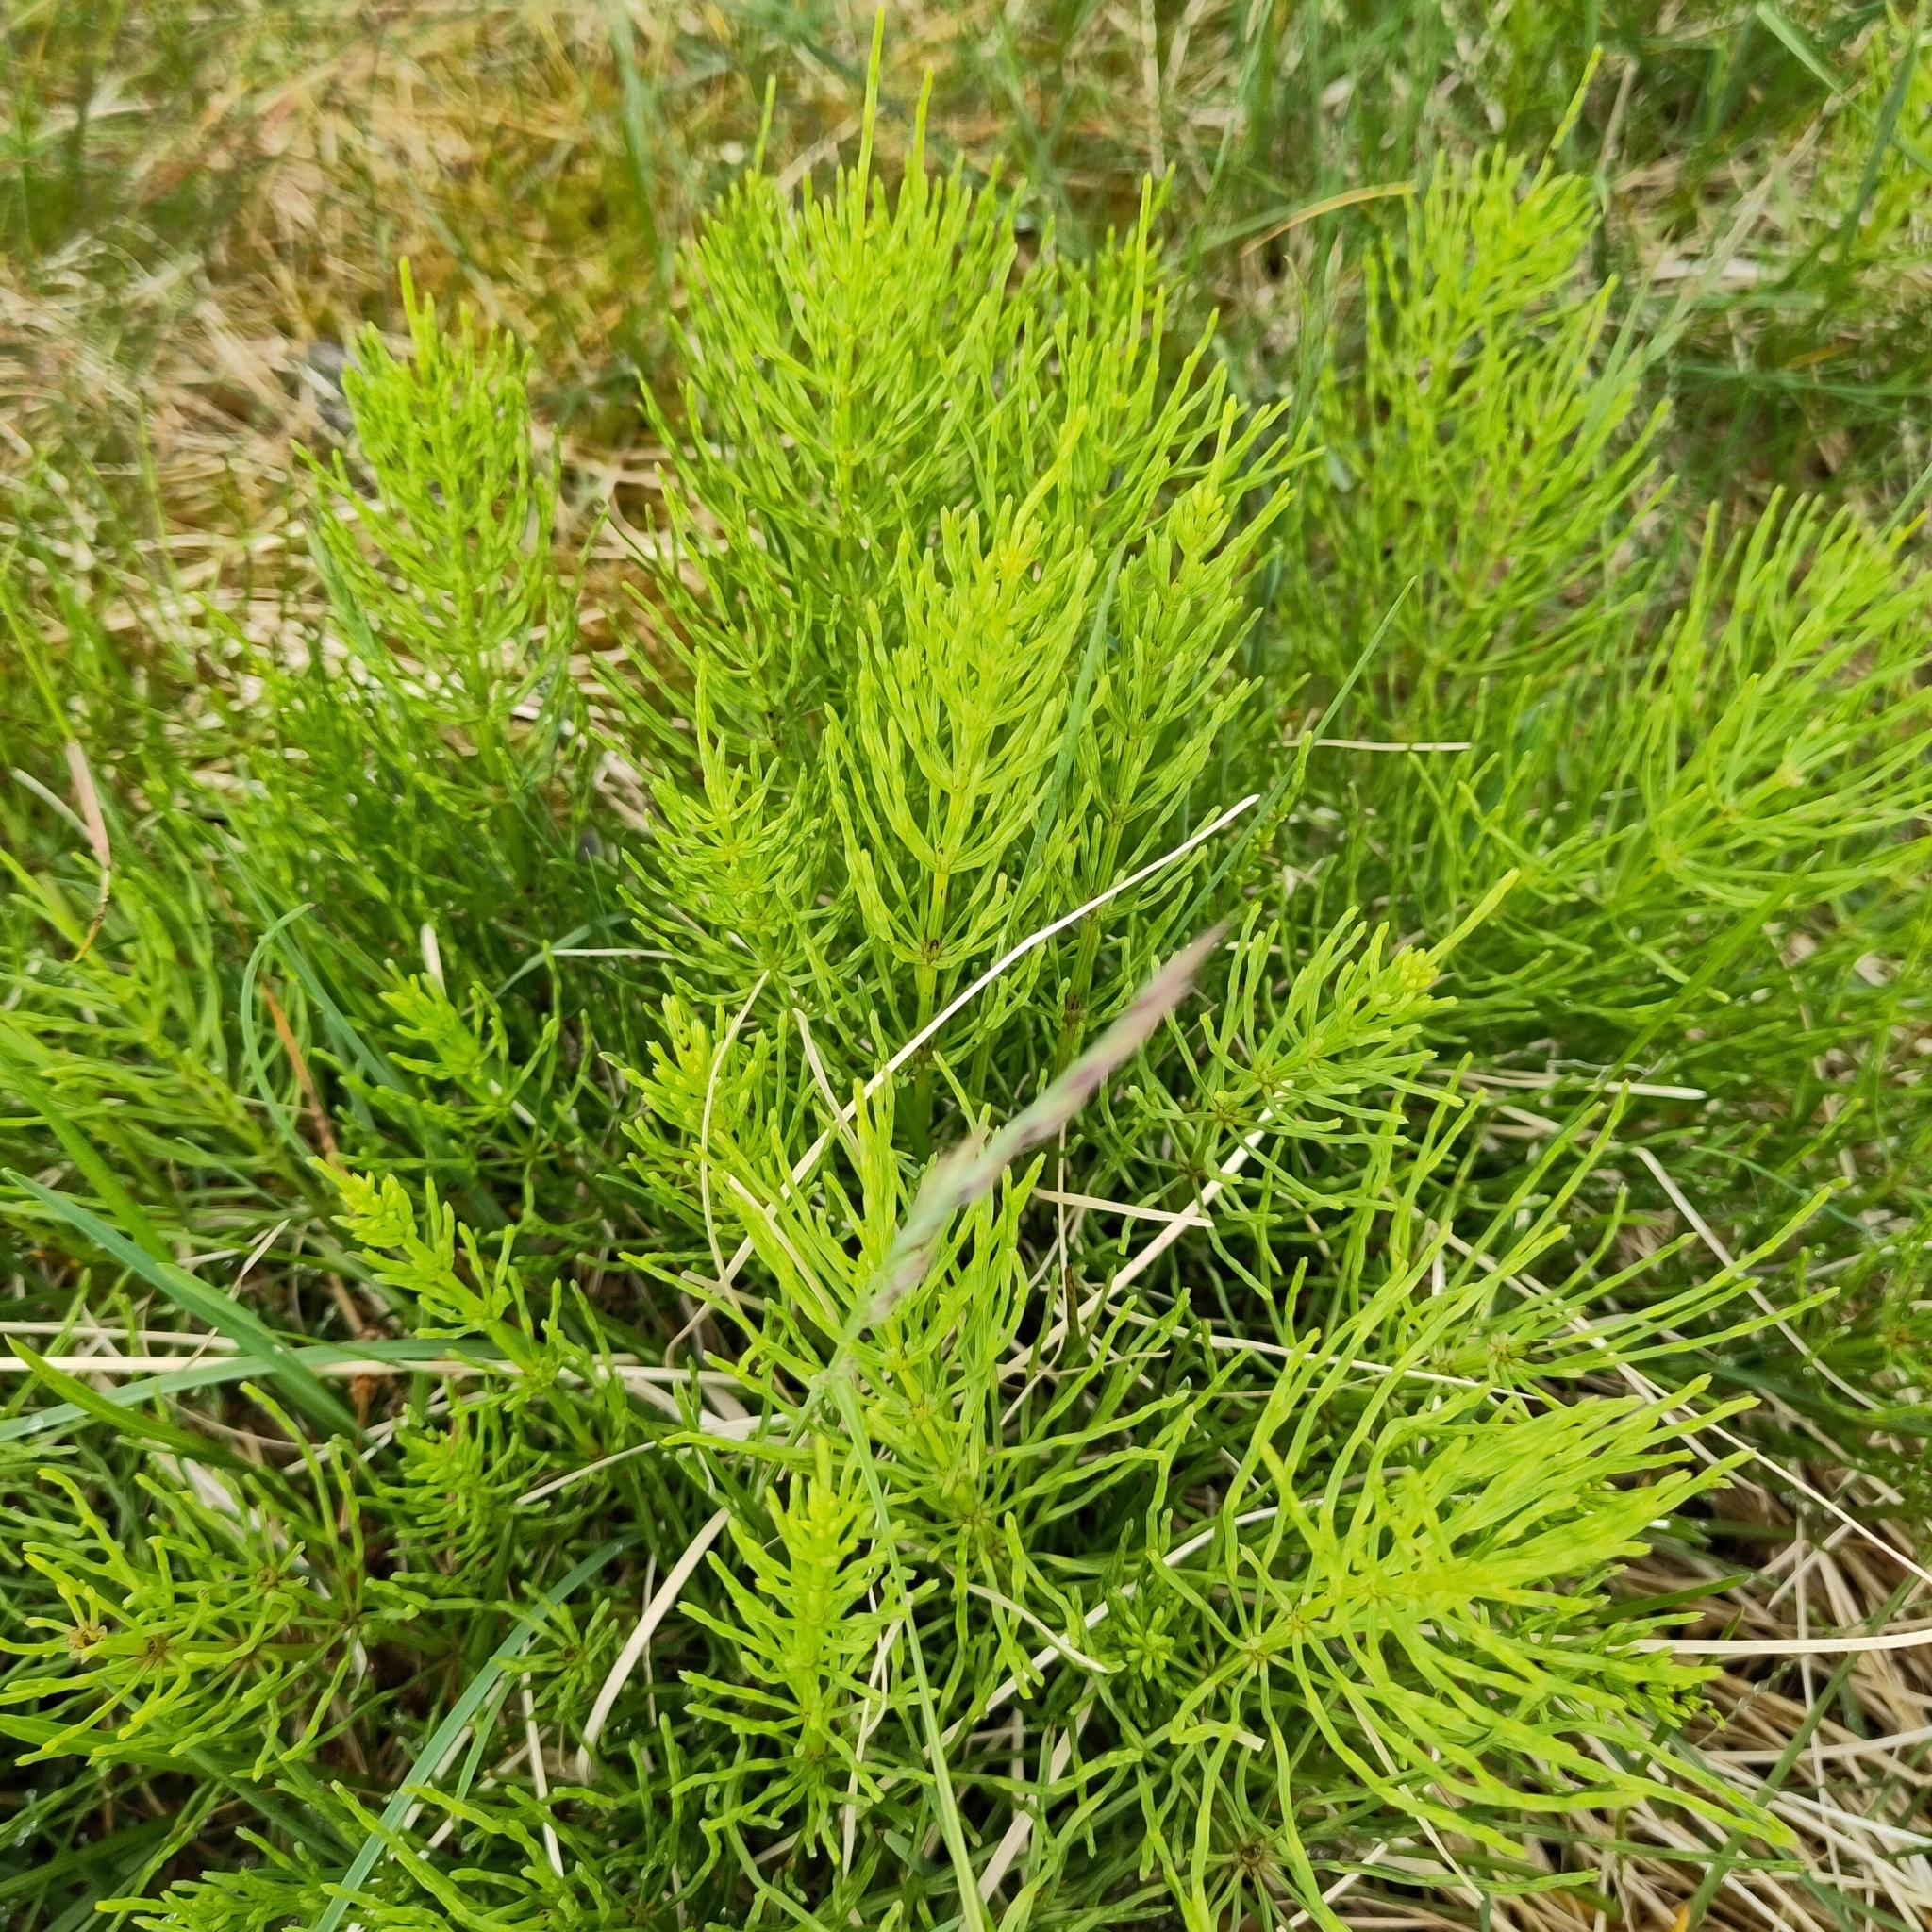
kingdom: Plantae
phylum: Tracheophyta
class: Polypodiopsida
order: Equisetales
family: Equisetaceae
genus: Equisetum
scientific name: Equisetum arvense
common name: Field horsetail
